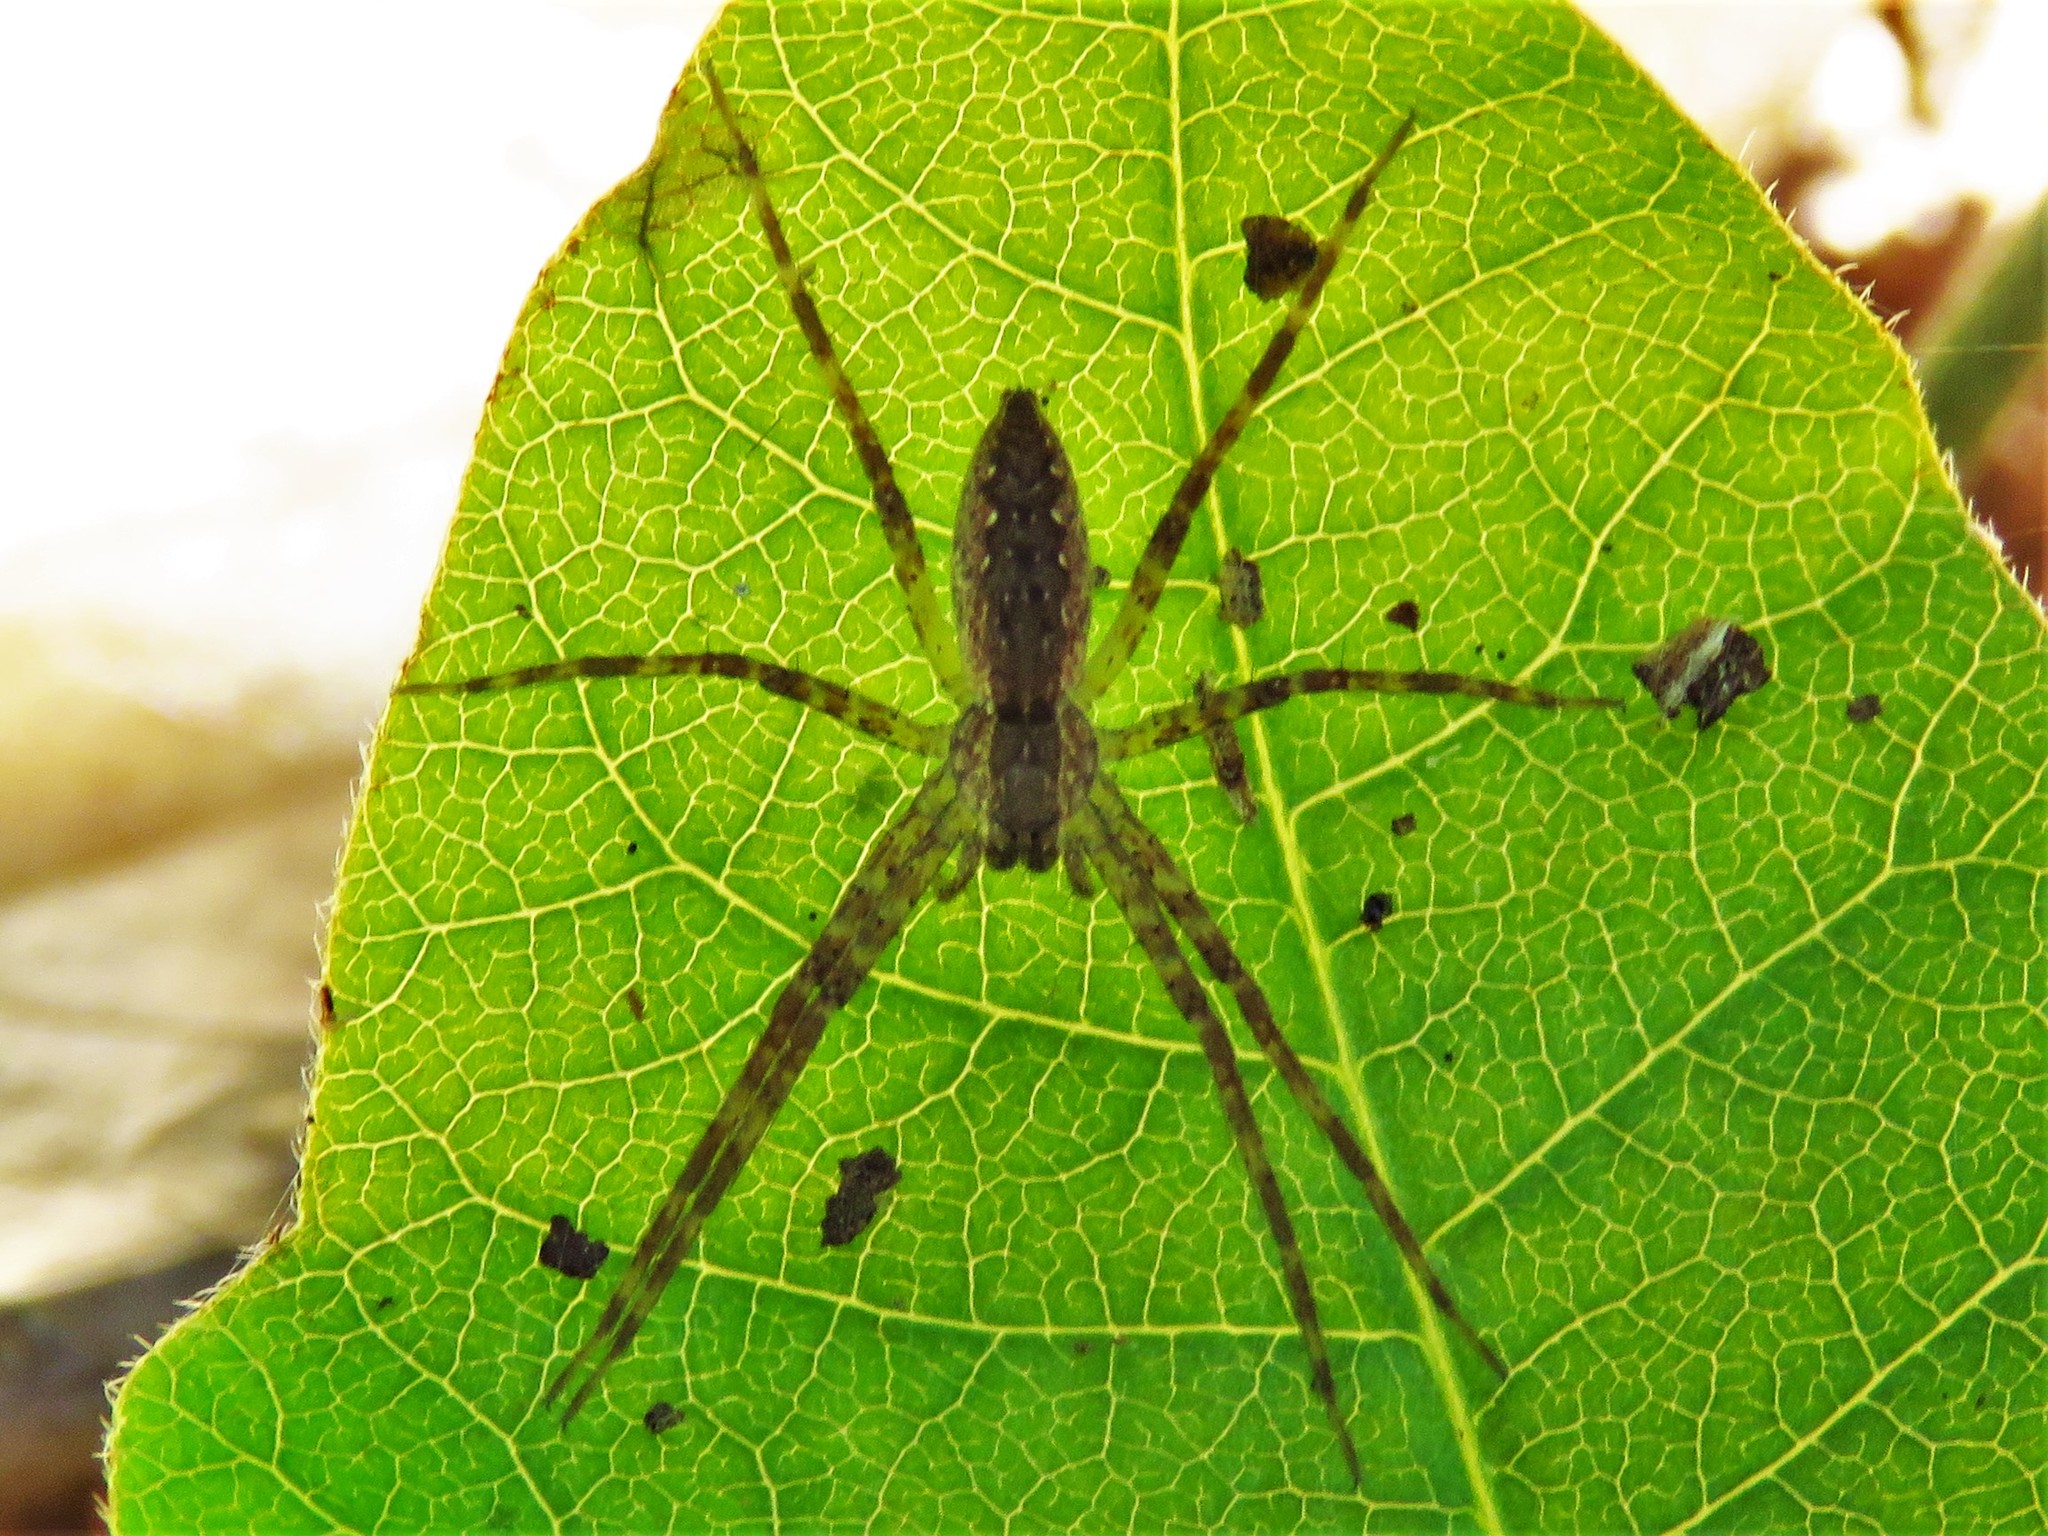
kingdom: Animalia
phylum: Arthropoda
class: Arachnida
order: Araneae
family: Pisauridae
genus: Pisaurina
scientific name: Pisaurina mira
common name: American nursery web spider
